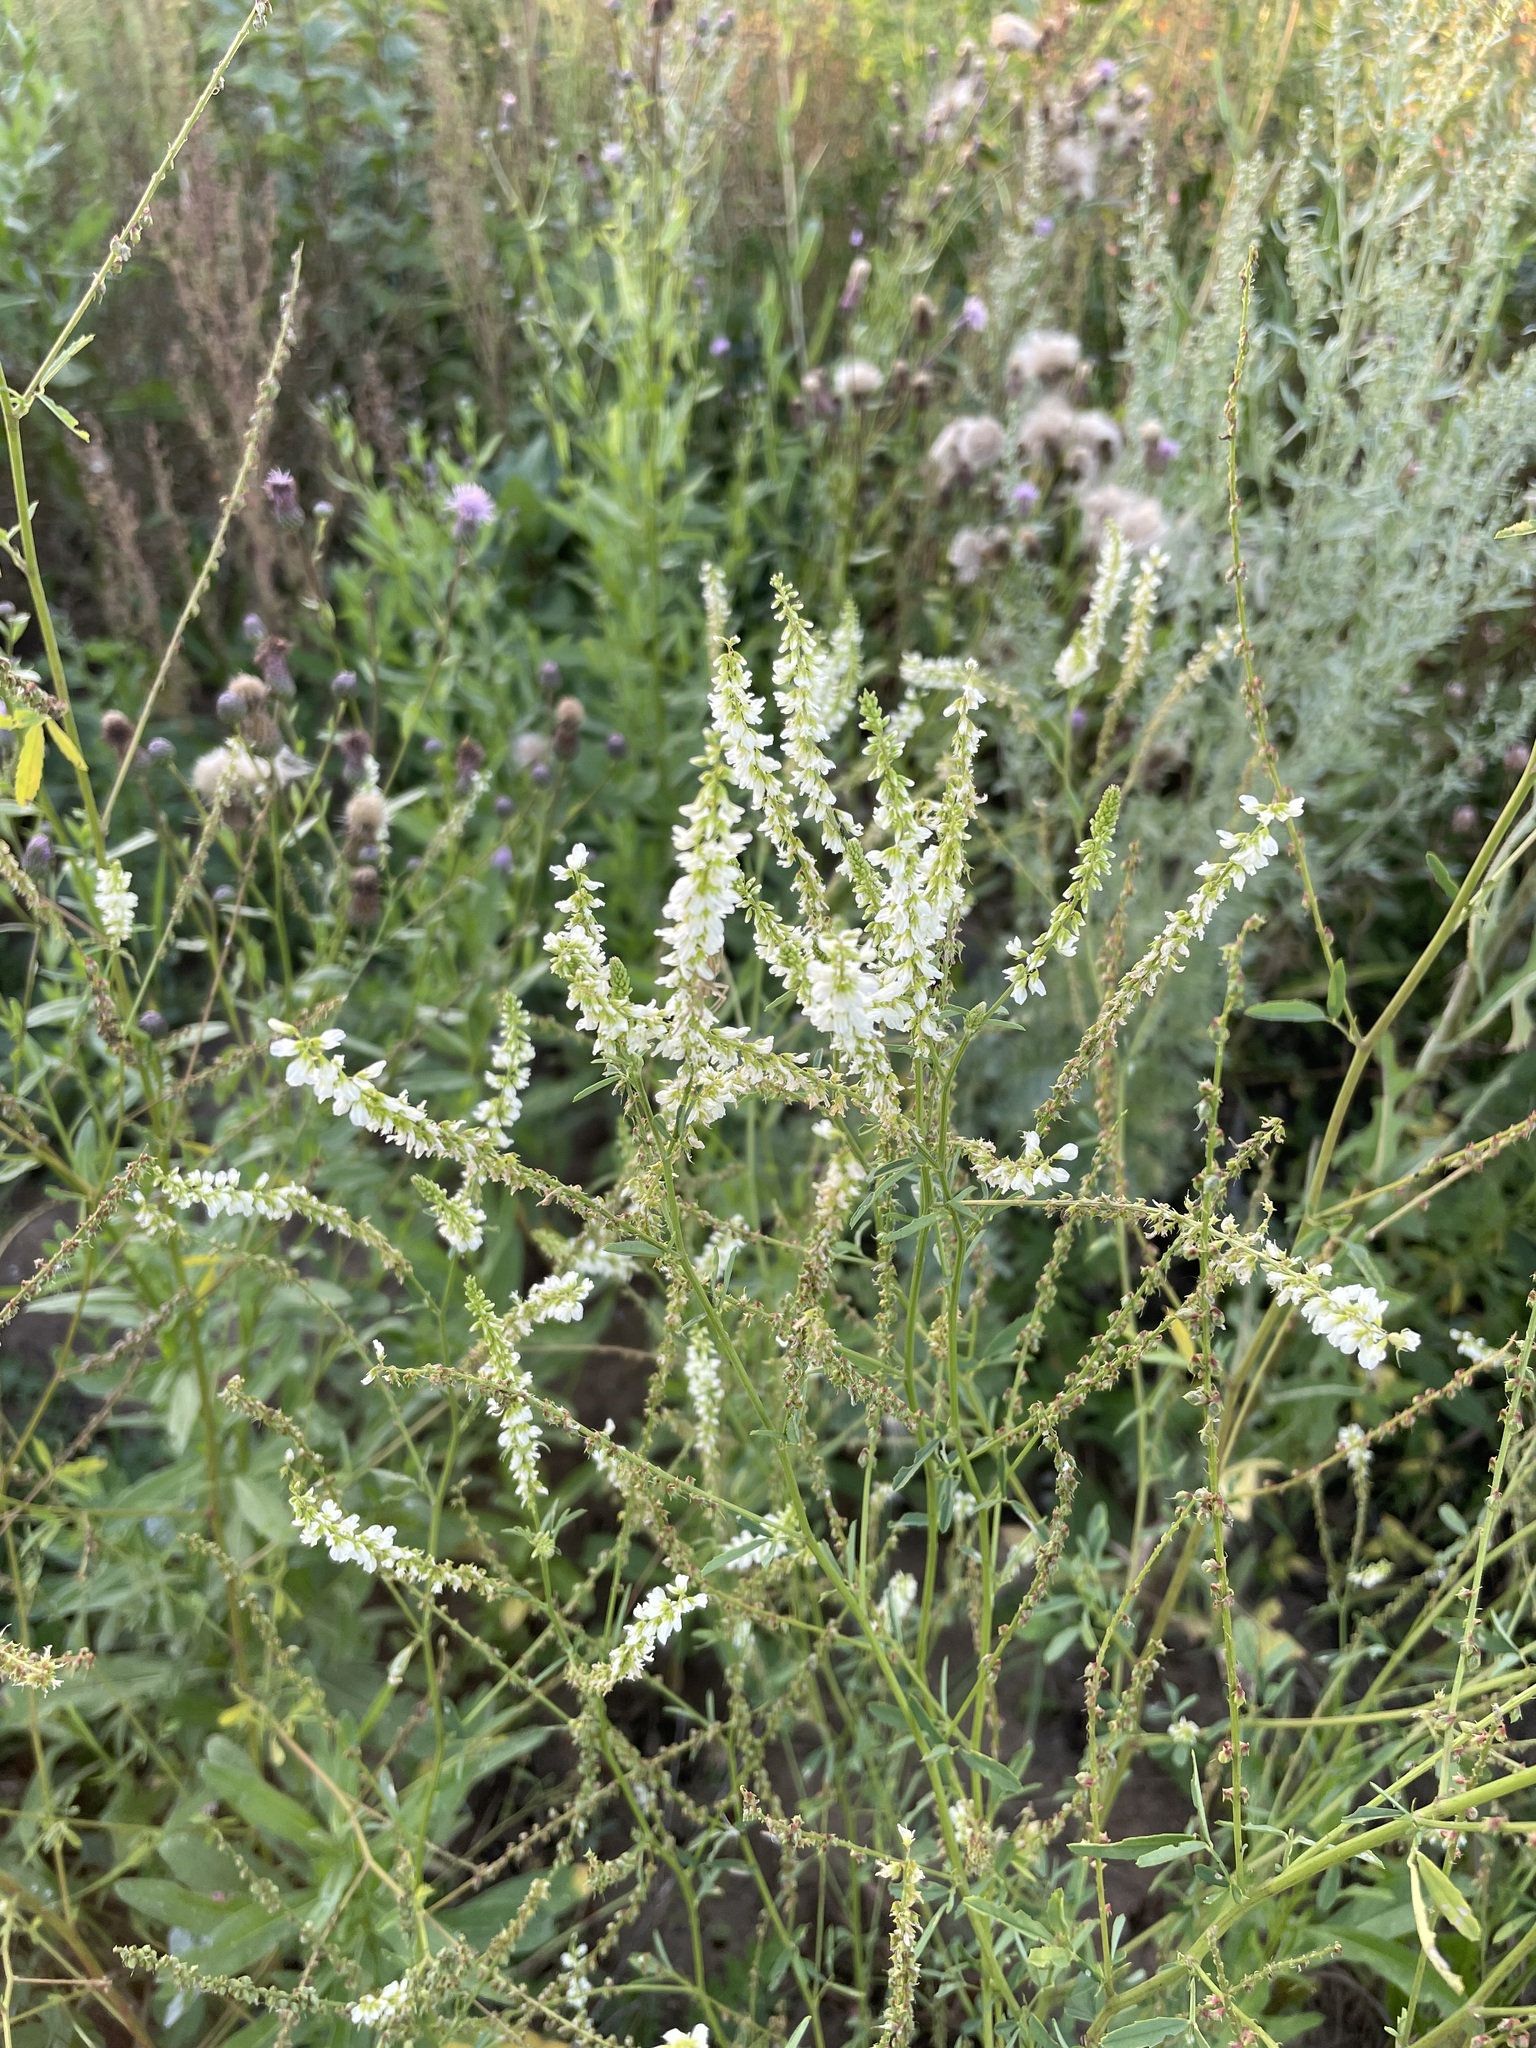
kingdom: Plantae
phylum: Tracheophyta
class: Magnoliopsida
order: Fabales
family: Fabaceae
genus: Melilotus
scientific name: Melilotus albus
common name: White melilot
